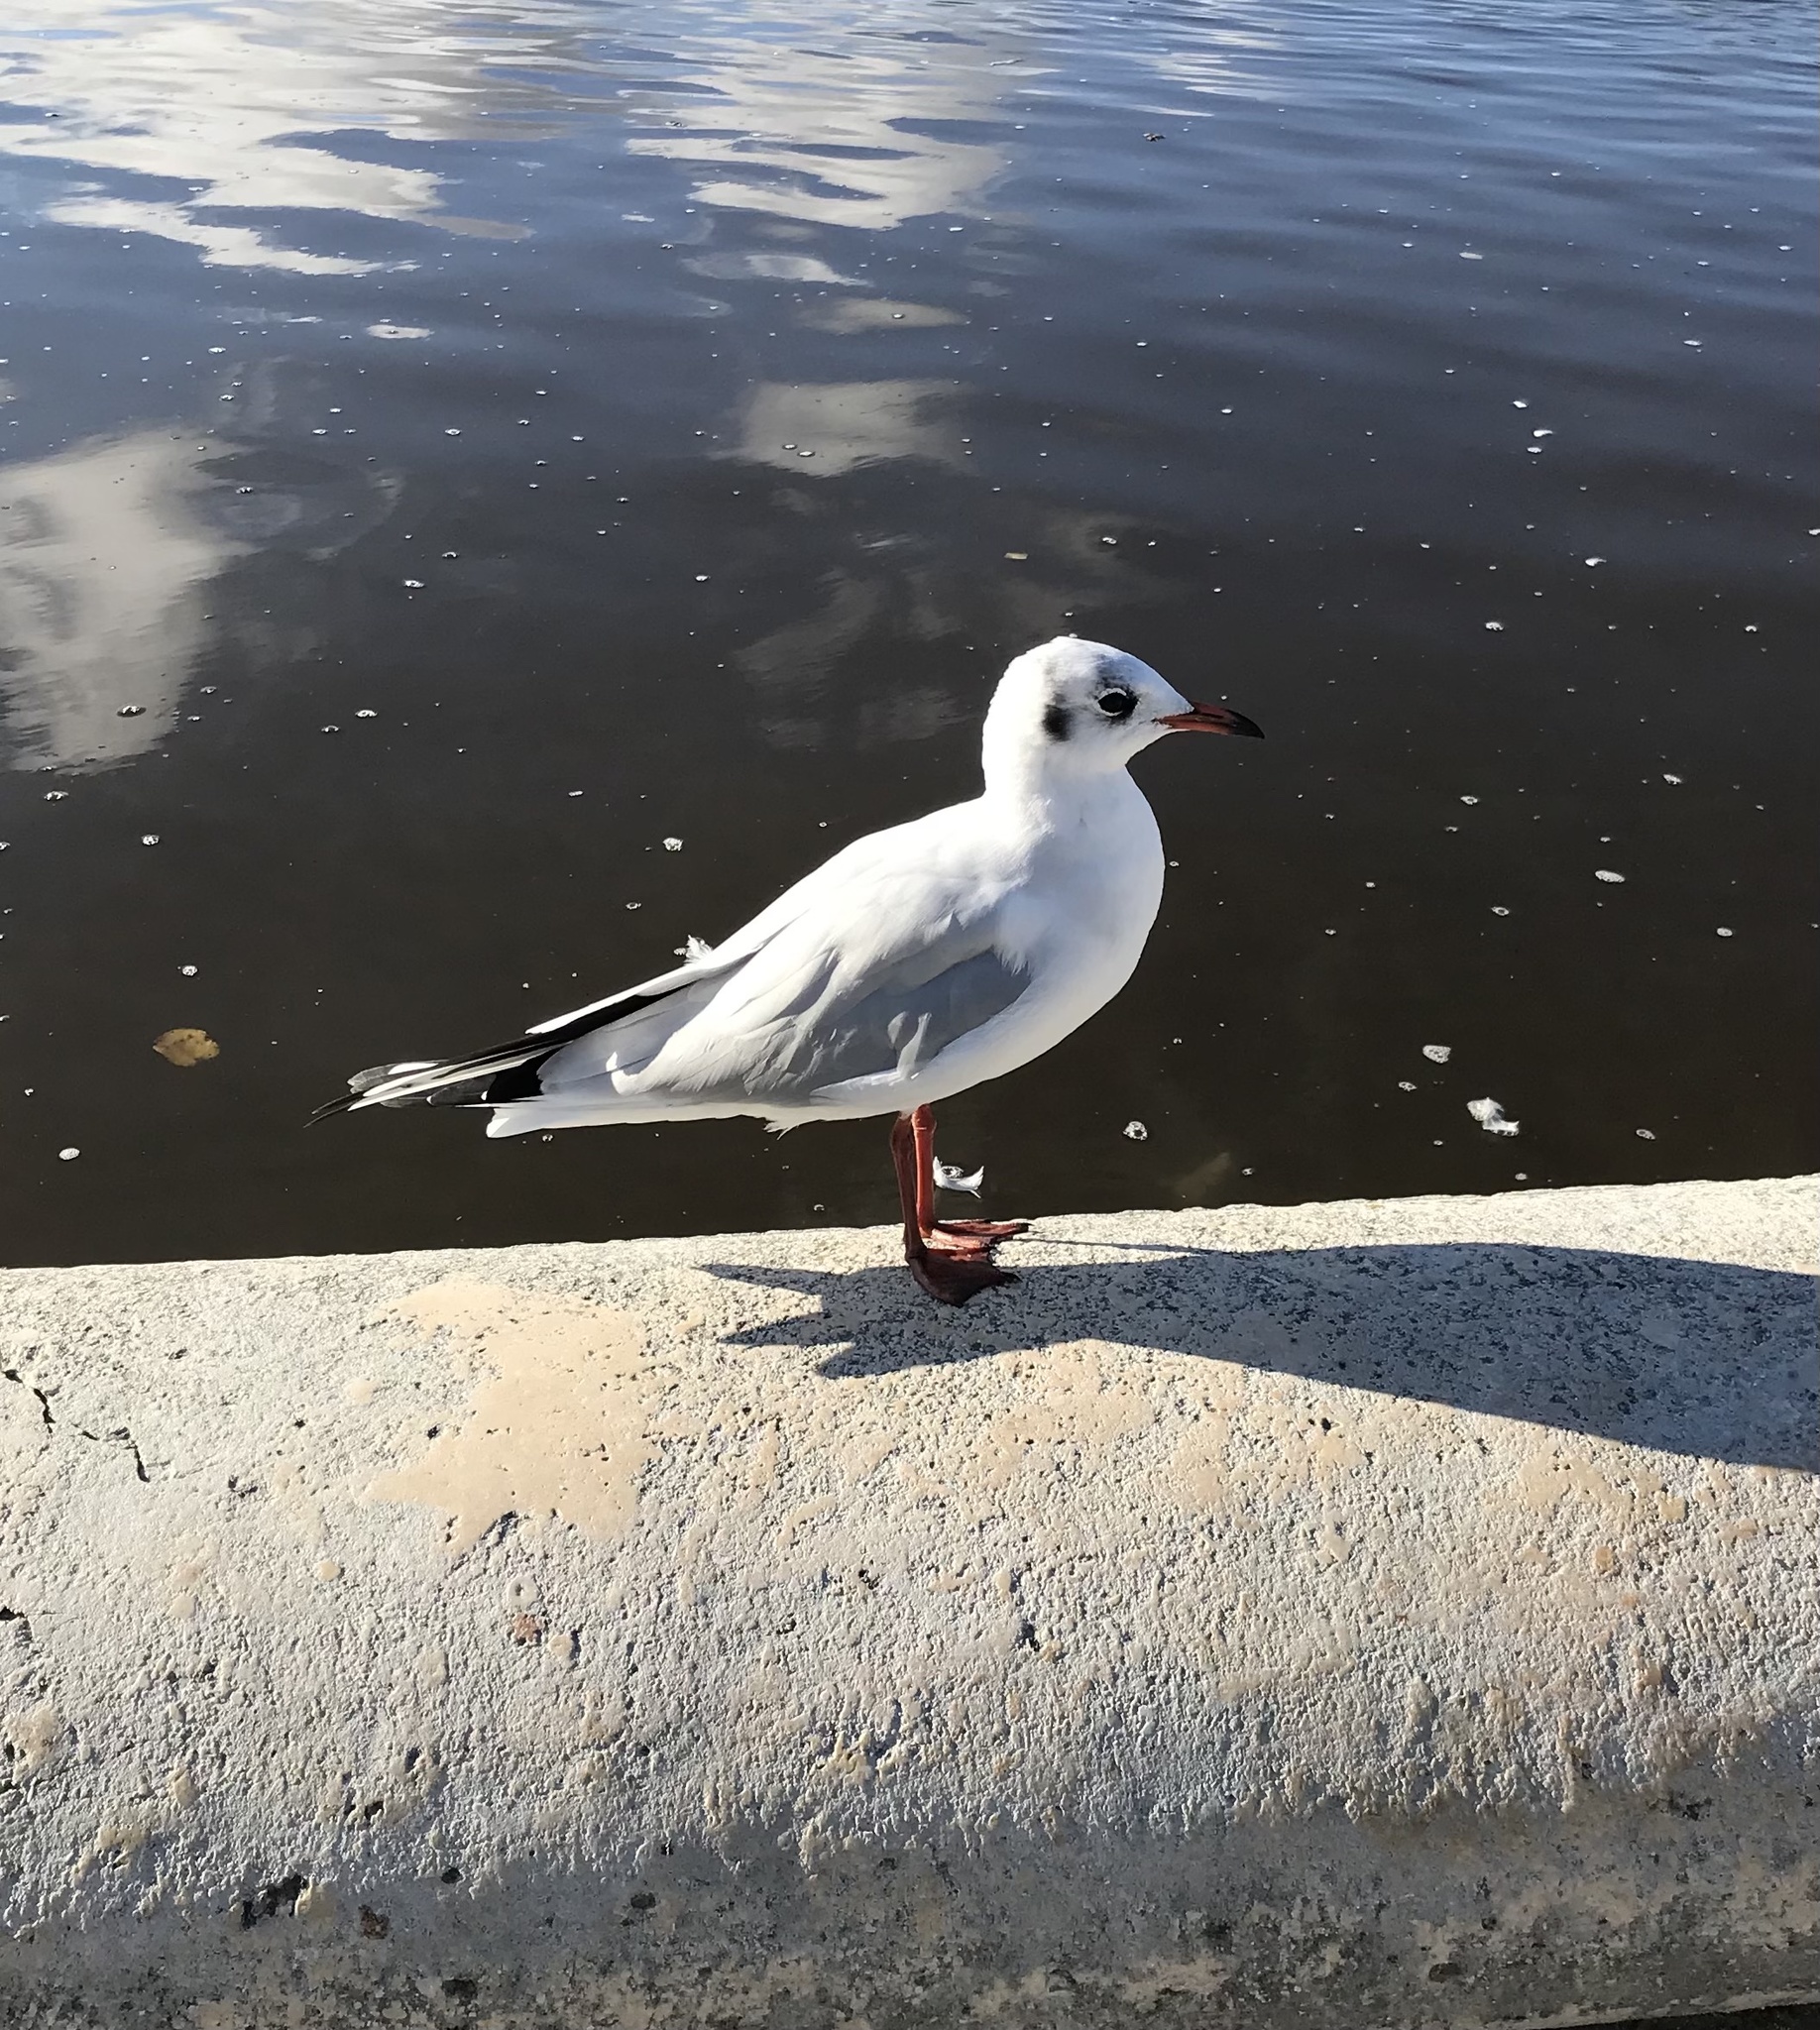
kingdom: Animalia
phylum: Chordata
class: Aves
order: Charadriiformes
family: Laridae
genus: Chroicocephalus
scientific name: Chroicocephalus ridibundus
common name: Black-headed gull
